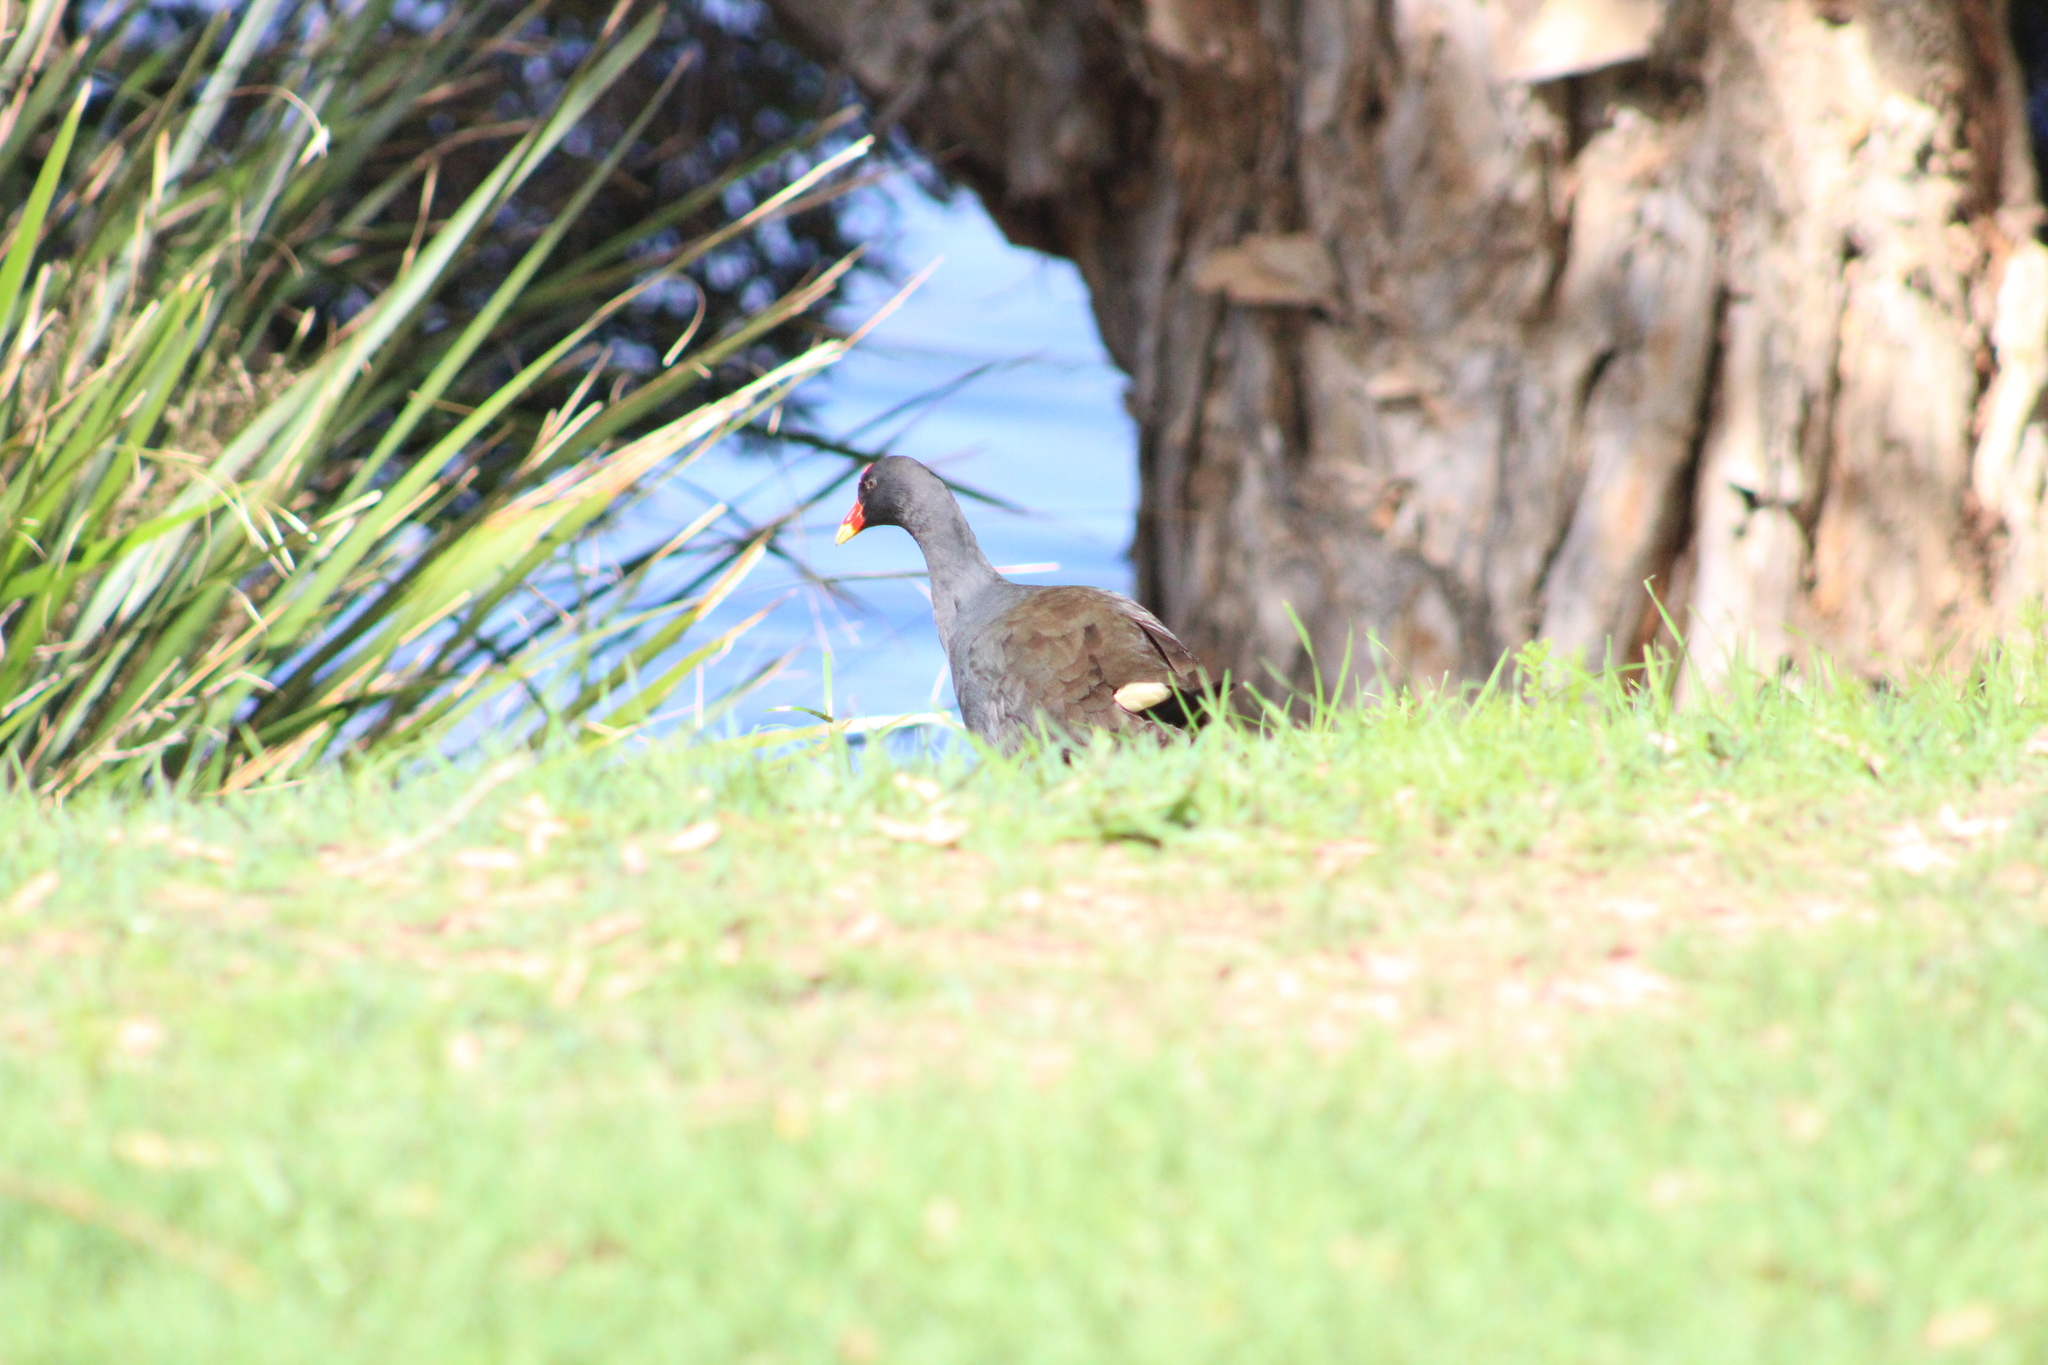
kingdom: Animalia
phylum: Chordata
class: Aves
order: Gruiformes
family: Rallidae
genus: Gallinula
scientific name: Gallinula tenebrosa
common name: Dusky moorhen
